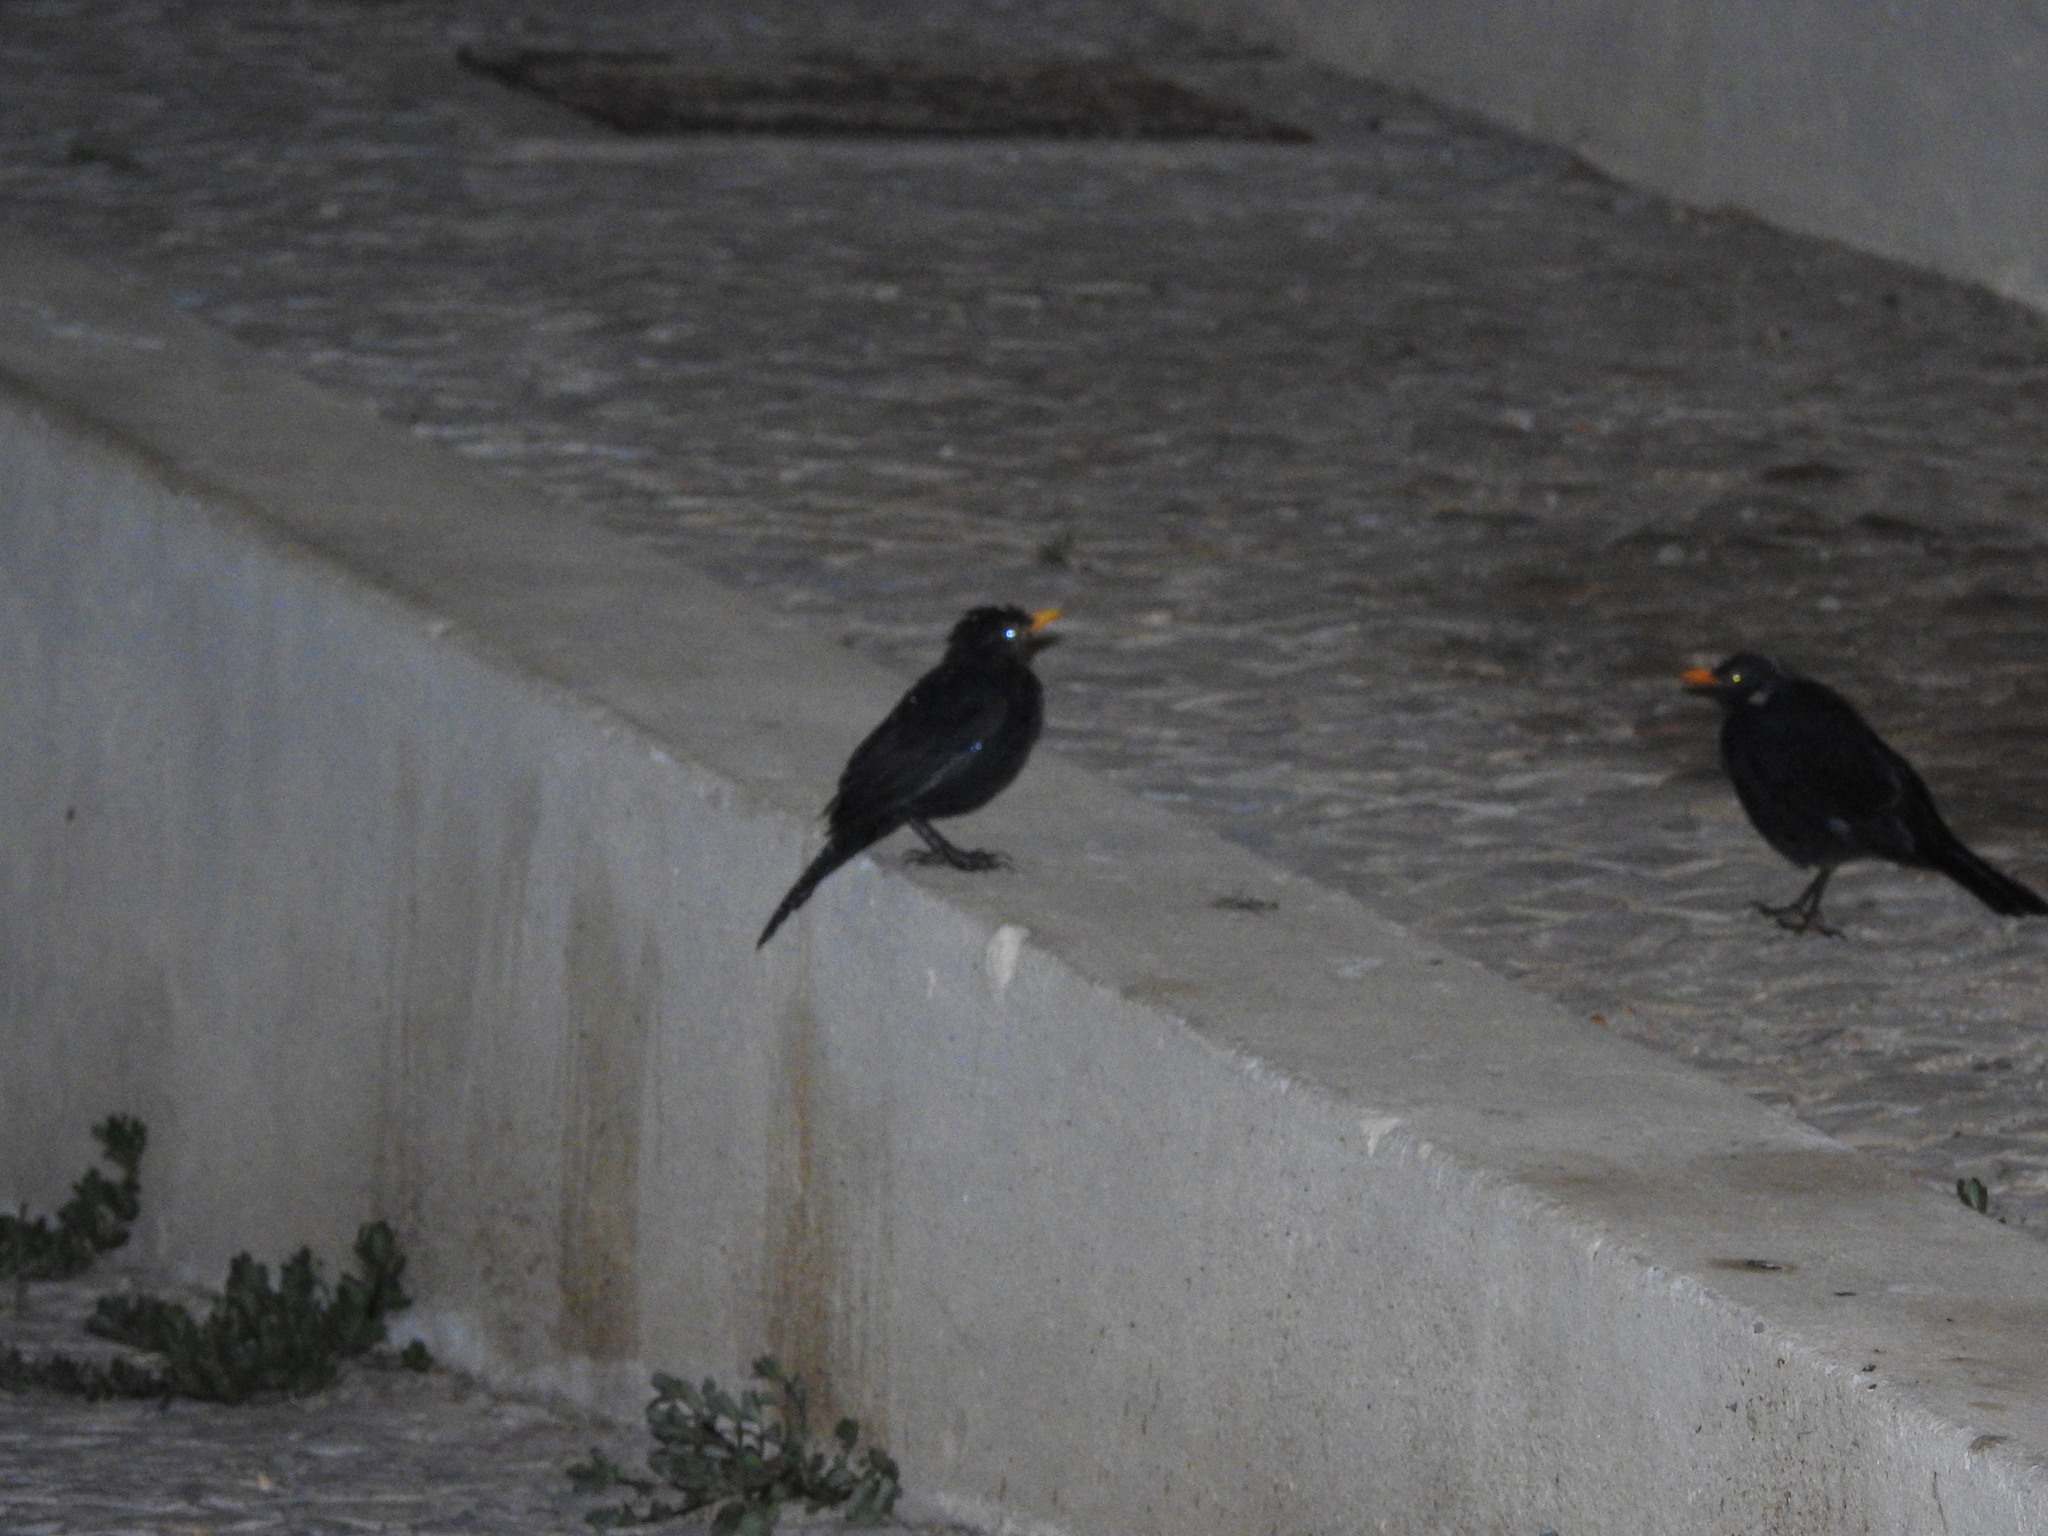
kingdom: Animalia
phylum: Chordata
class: Aves
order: Passeriformes
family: Turdidae
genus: Turdus
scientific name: Turdus merula
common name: Common blackbird
